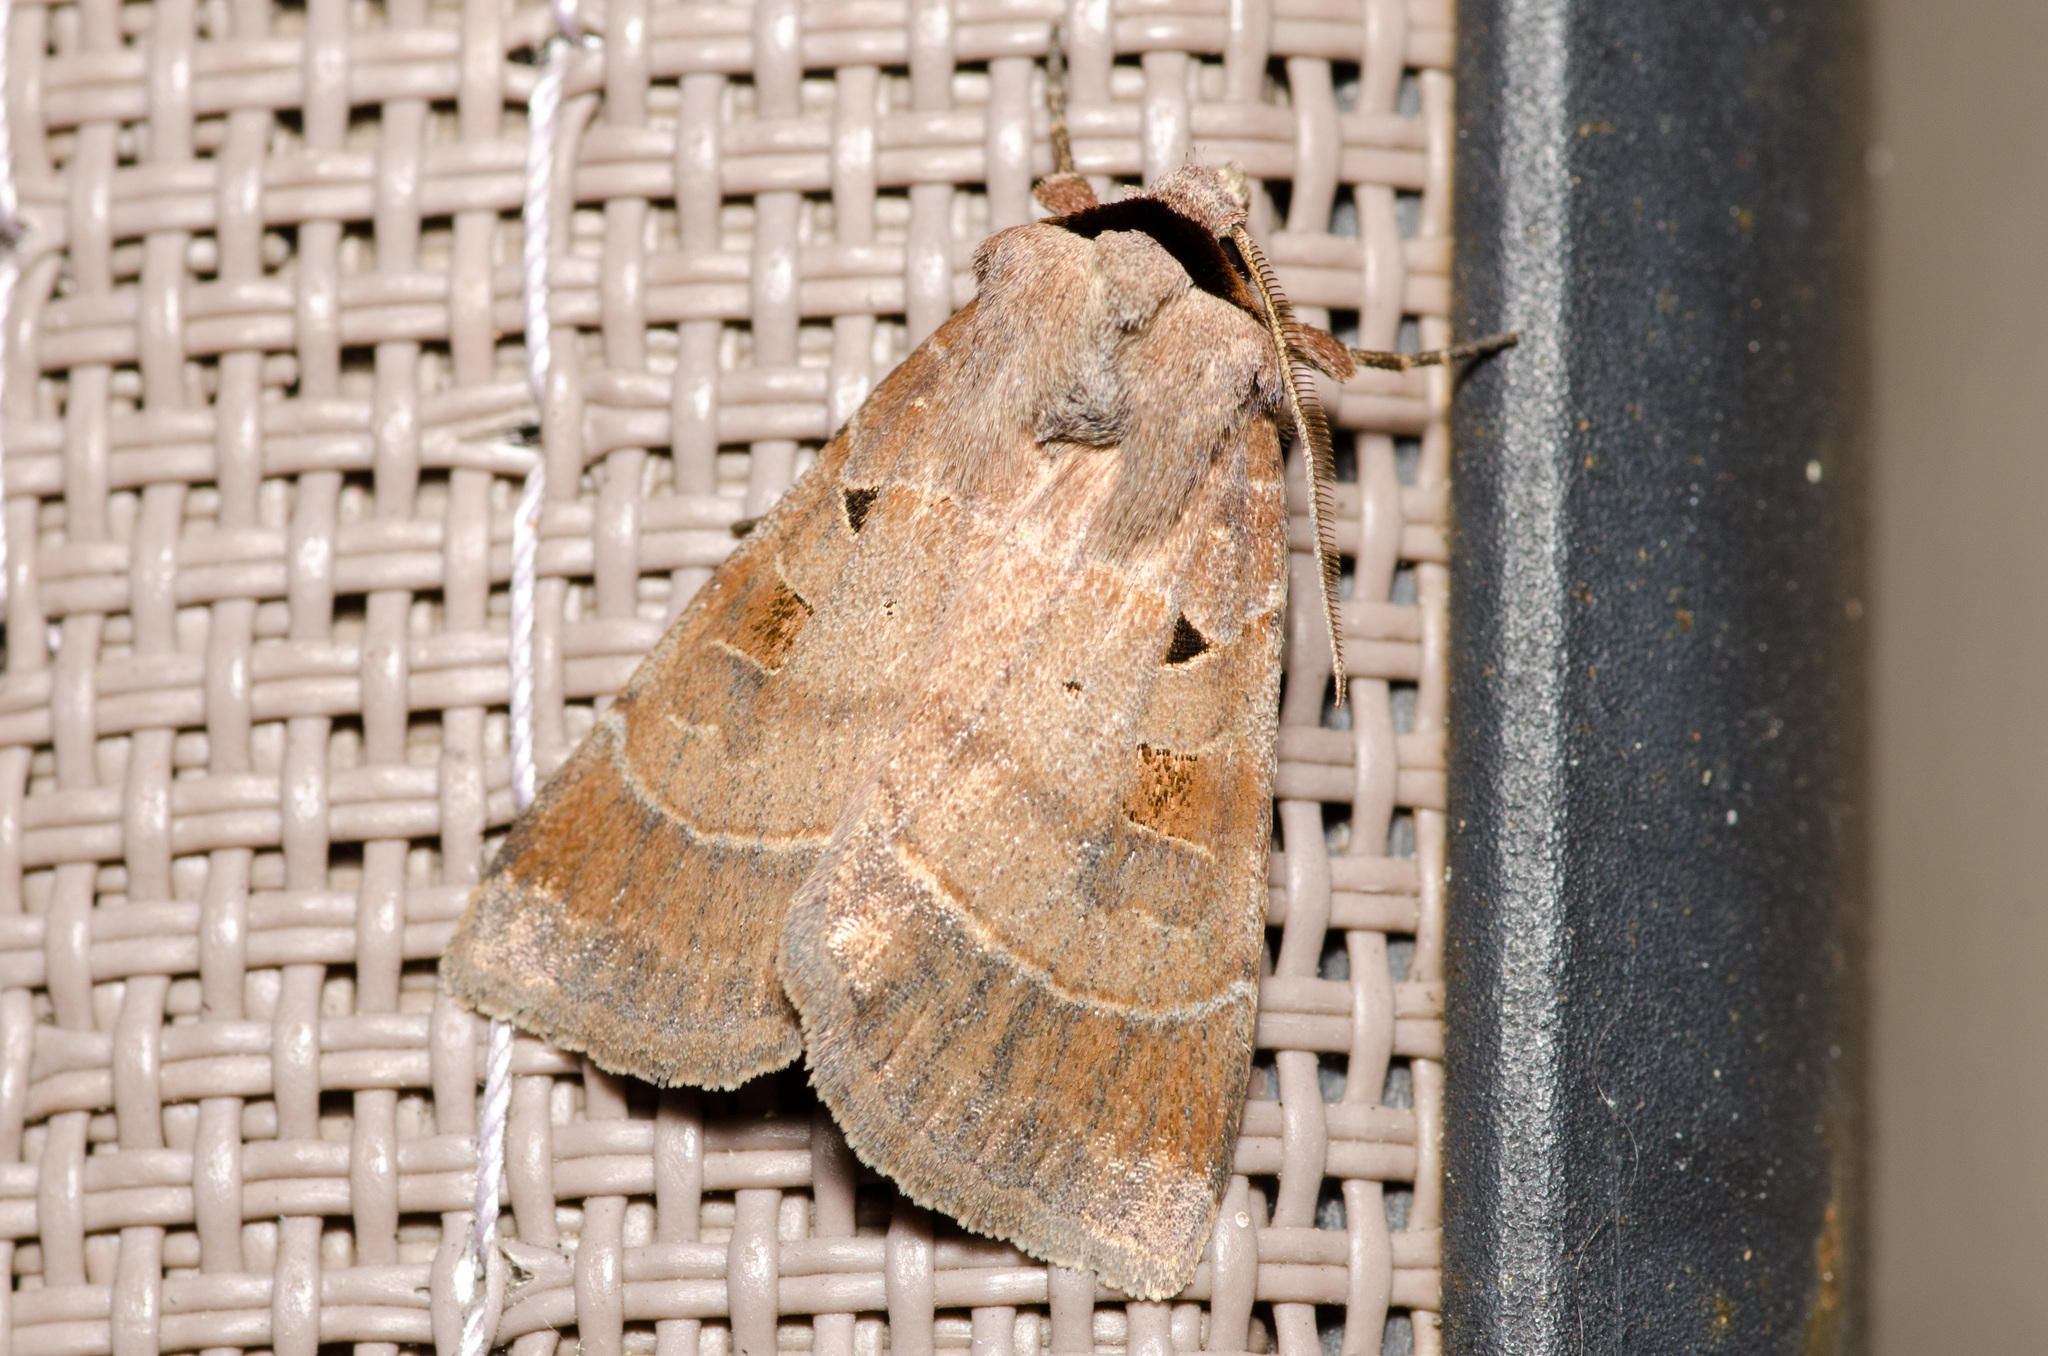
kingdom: Animalia
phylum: Arthropoda
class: Insecta
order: Lepidoptera
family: Noctuidae
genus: Agnorisma
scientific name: Agnorisma badinodis
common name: Pale-banded dart
